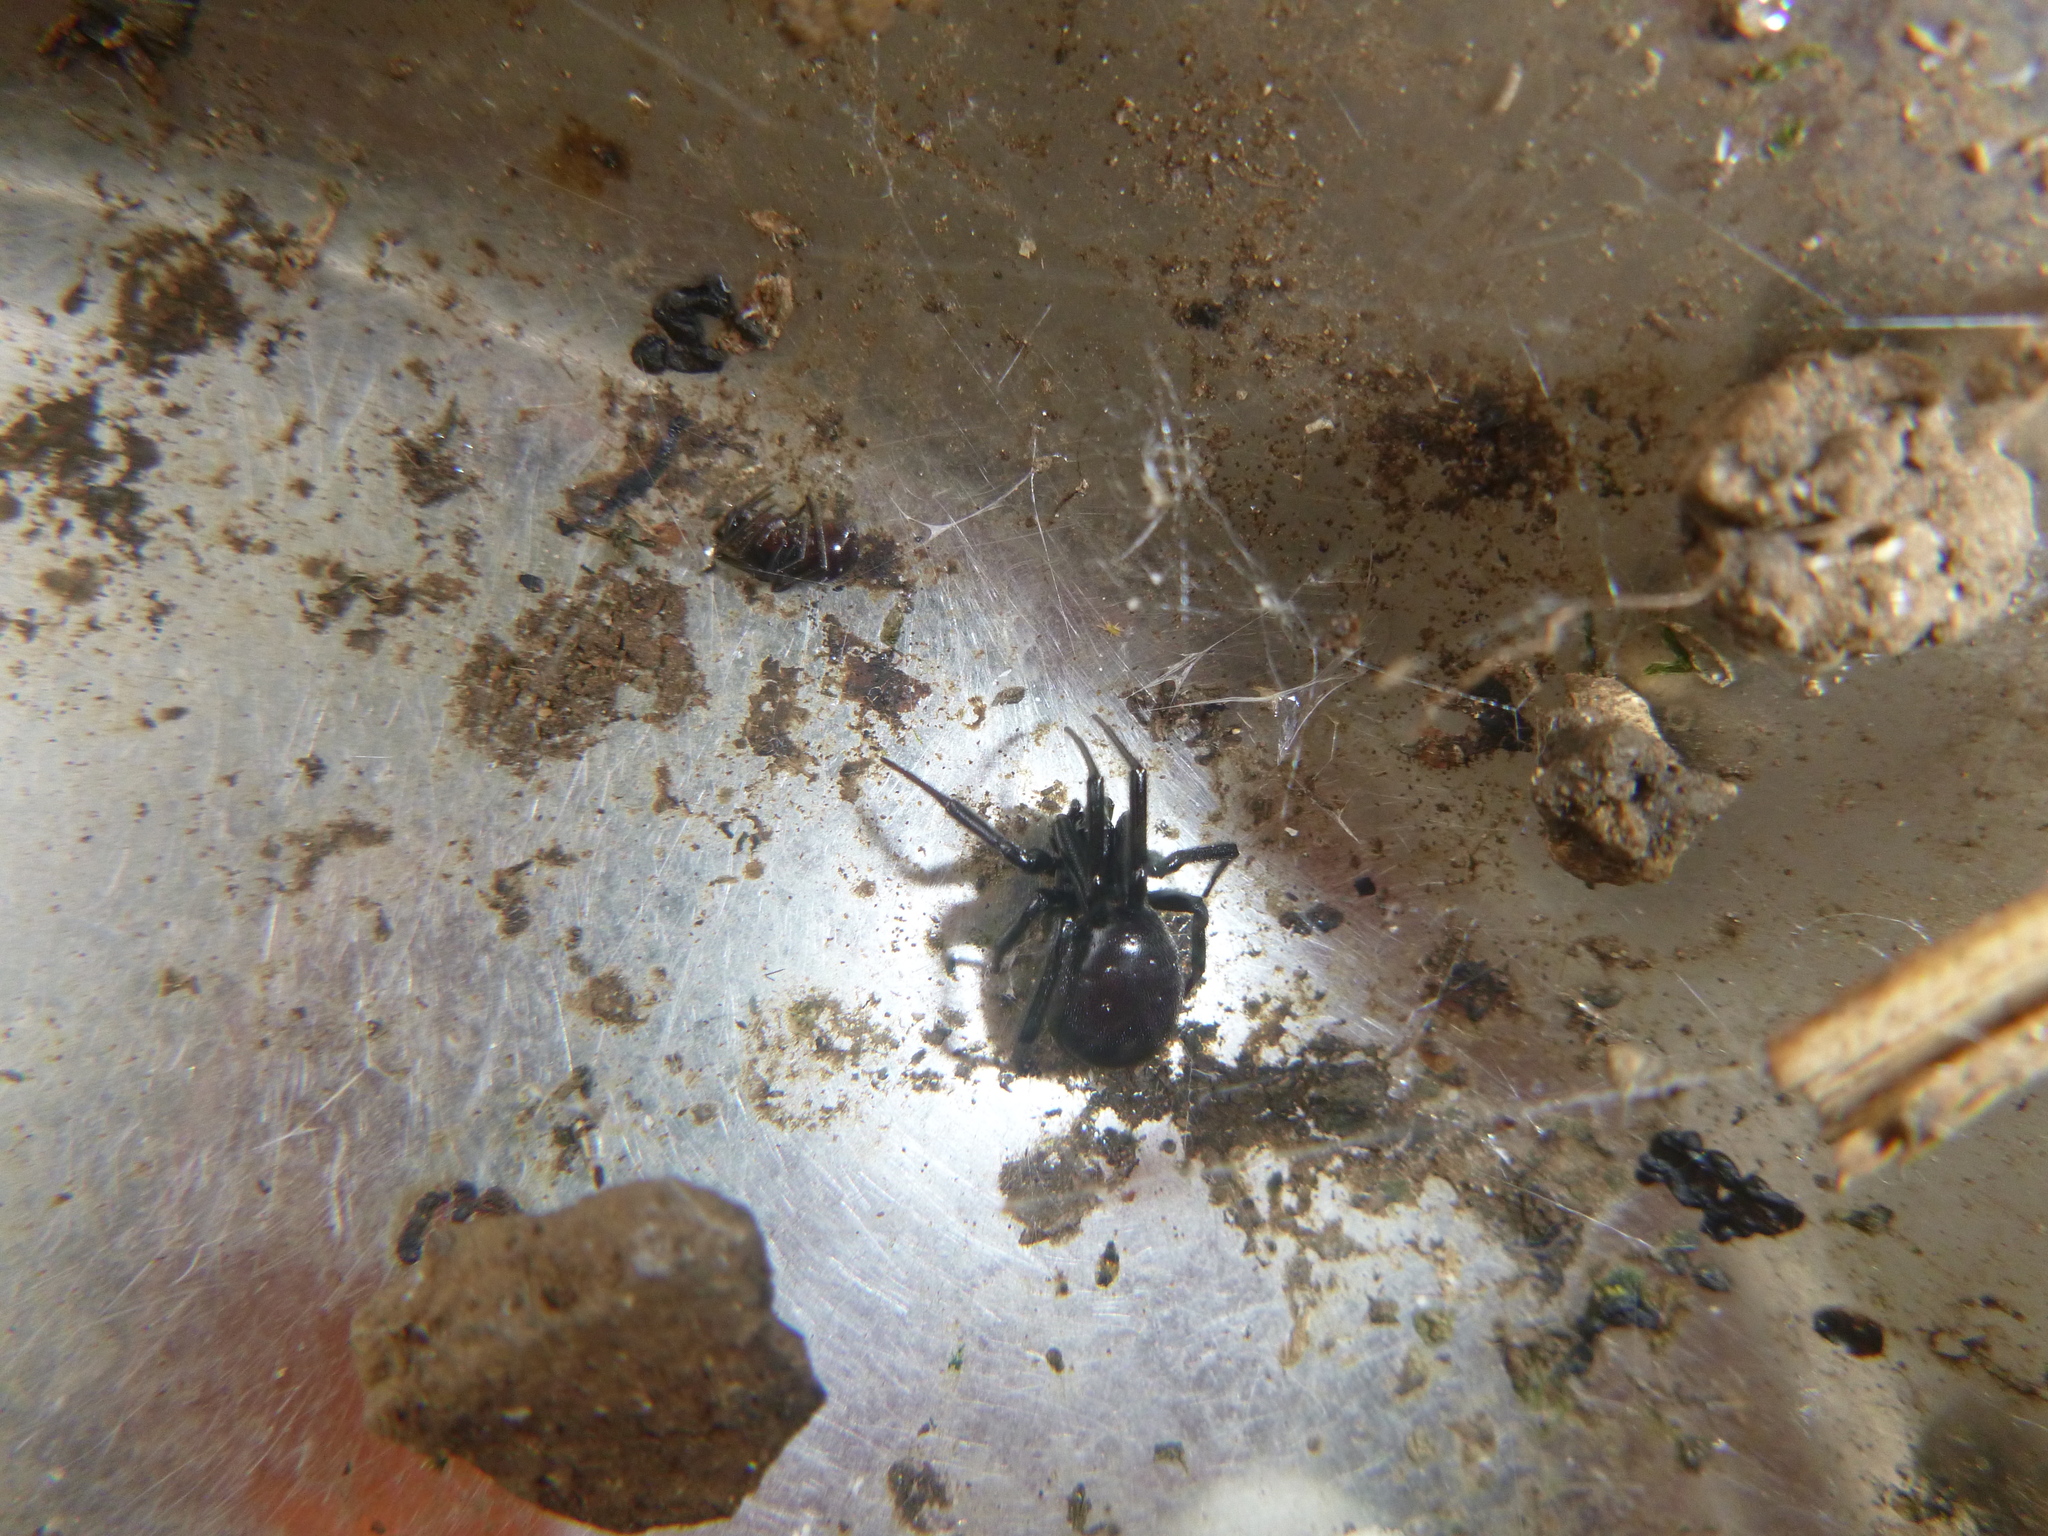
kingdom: Animalia
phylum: Arthropoda
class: Arachnida
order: Araneae
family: Theridiidae
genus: Steatoda
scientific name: Steatoda capensis
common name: Cobweb weaver
